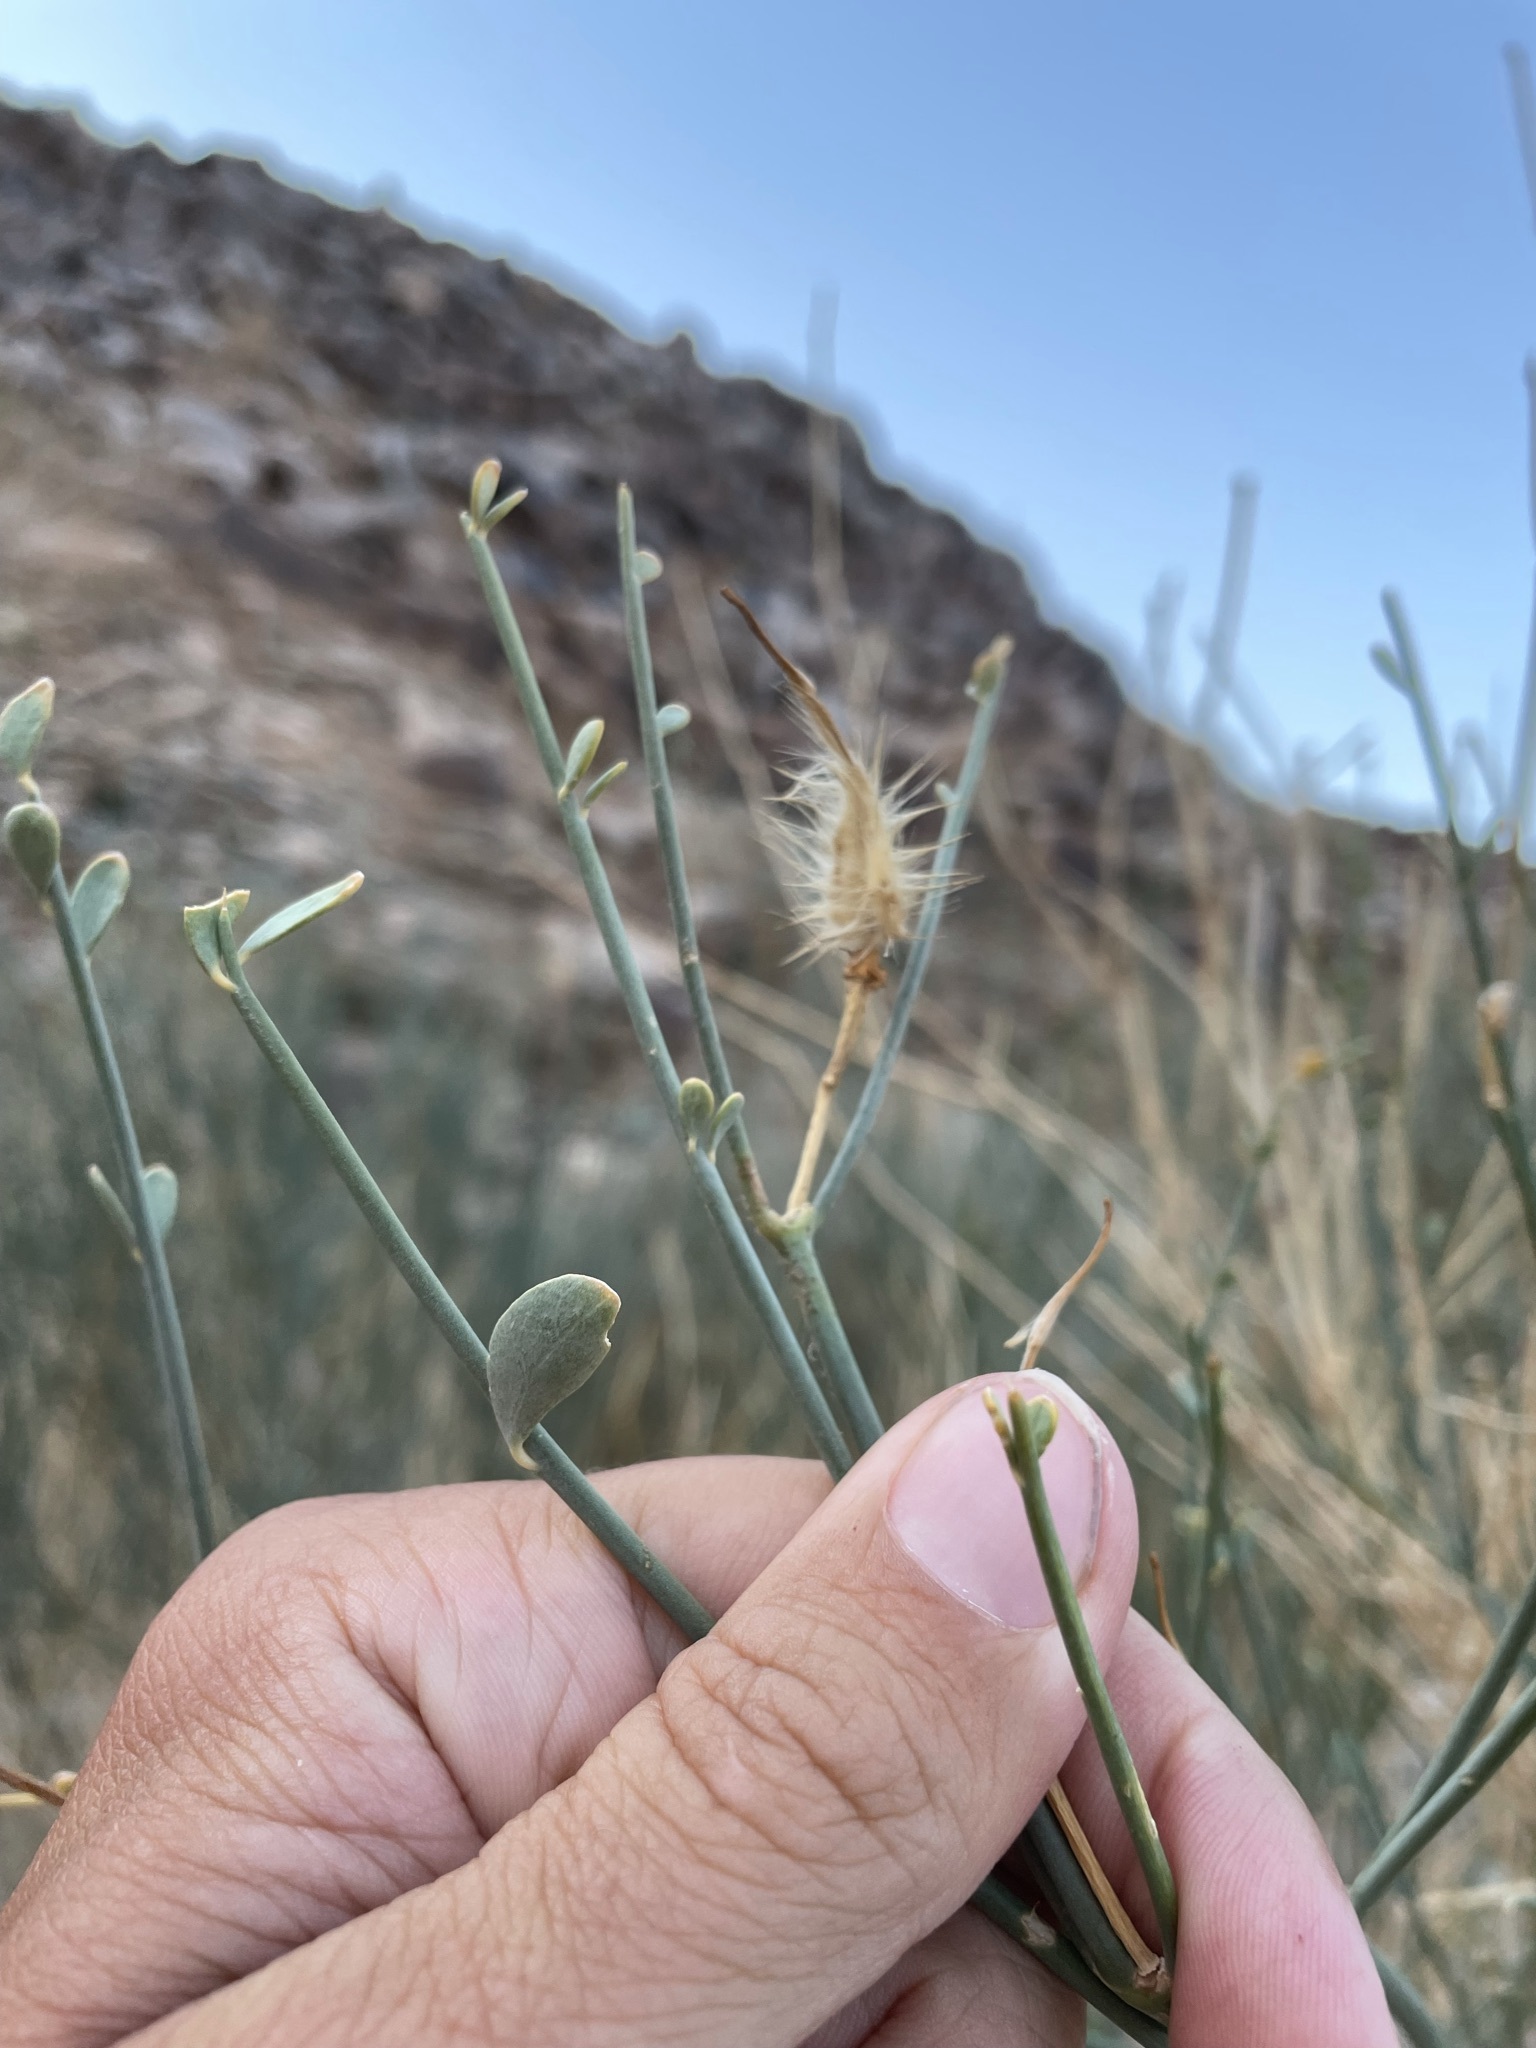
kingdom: Plantae
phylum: Tracheophyta
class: Magnoliopsida
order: Zygophyllales
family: Zygophyllaceae
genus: Sisyndite
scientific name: Sisyndite spartea
